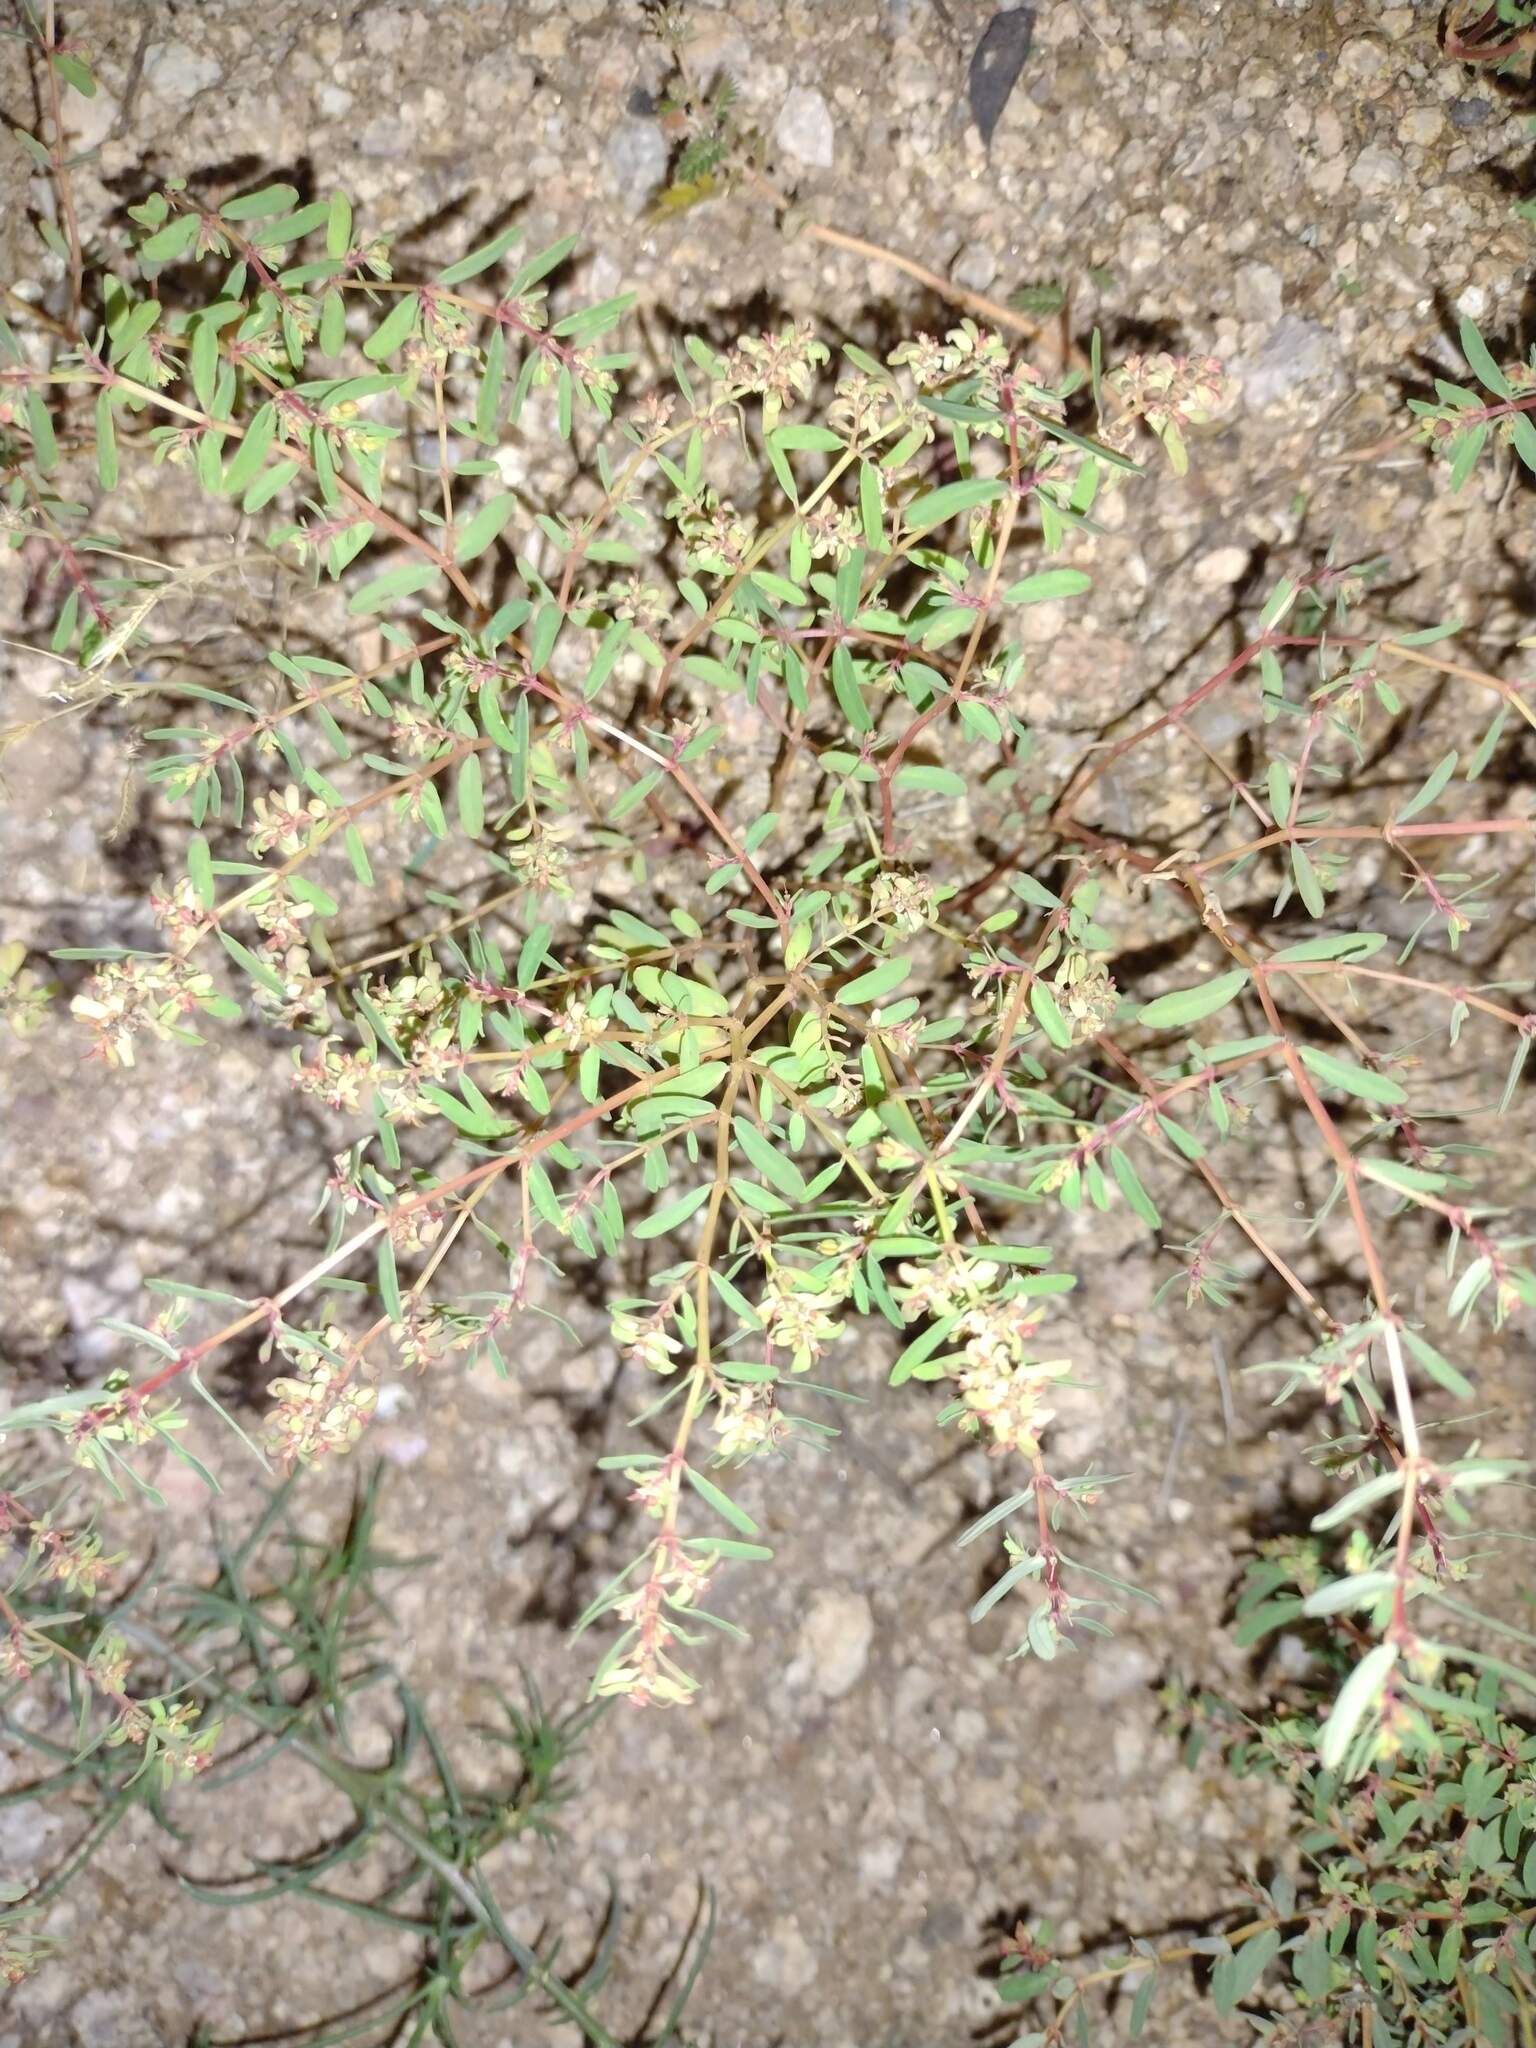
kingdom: Plantae
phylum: Tracheophyta
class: Magnoliopsida
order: Malpighiales
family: Euphorbiaceae
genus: Euphorbia
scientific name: Euphorbia serpillifolia
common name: Thyme-leaf spurge
